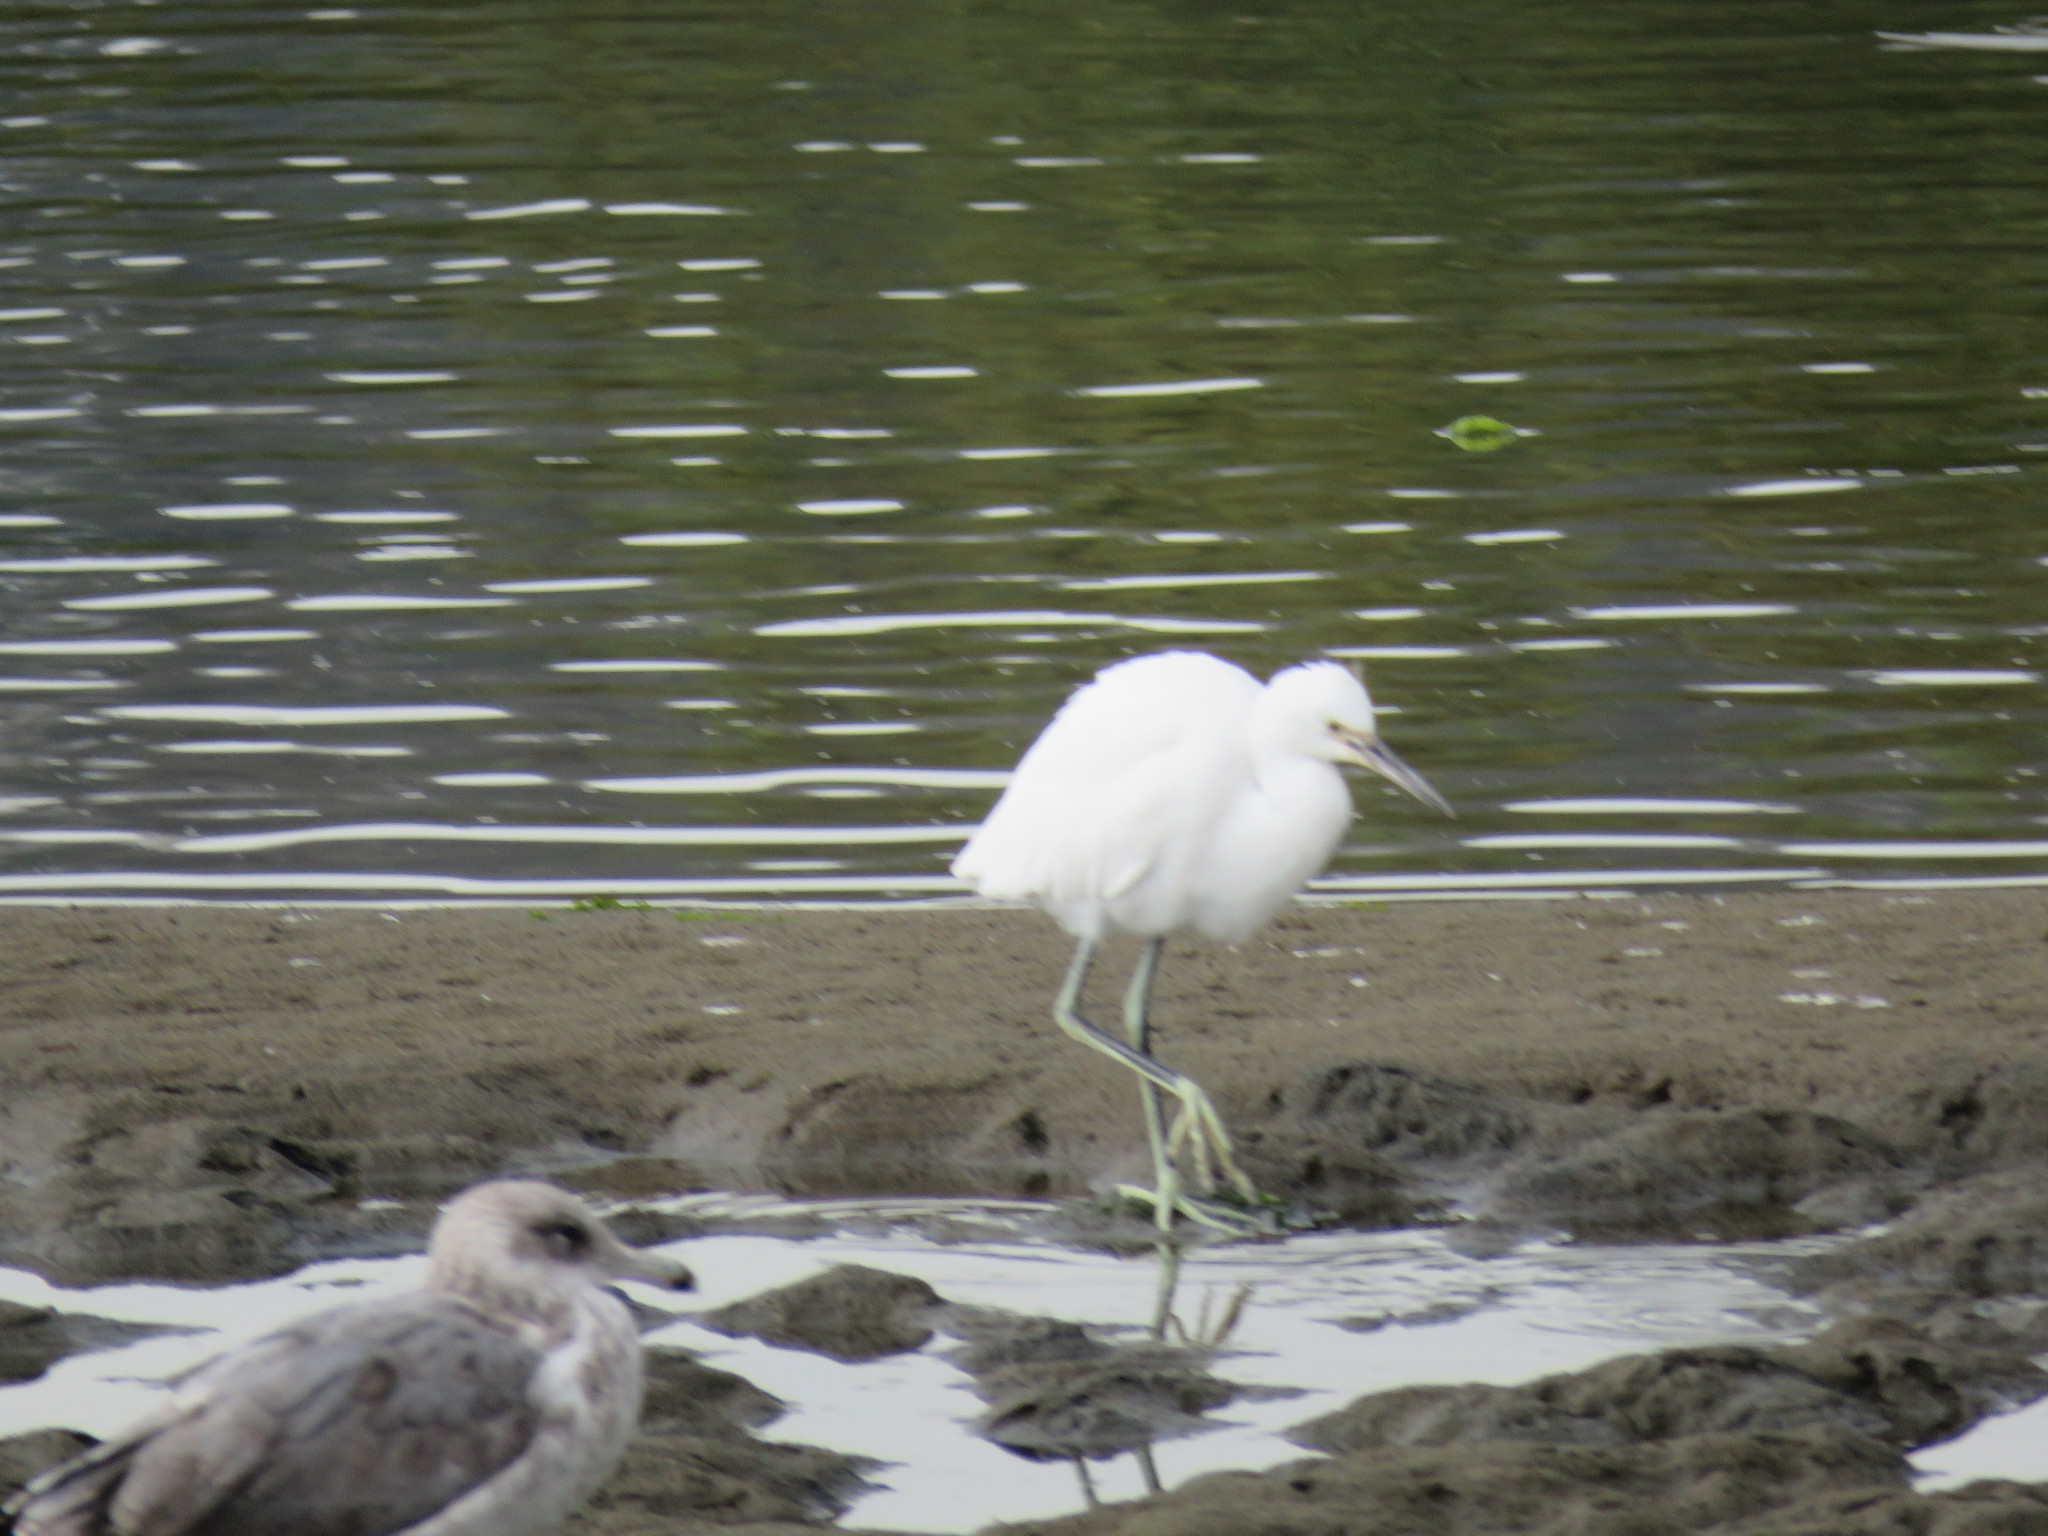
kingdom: Animalia
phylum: Chordata
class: Aves
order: Pelecaniformes
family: Ardeidae
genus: Egretta
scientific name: Egretta thula
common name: Snowy egret
